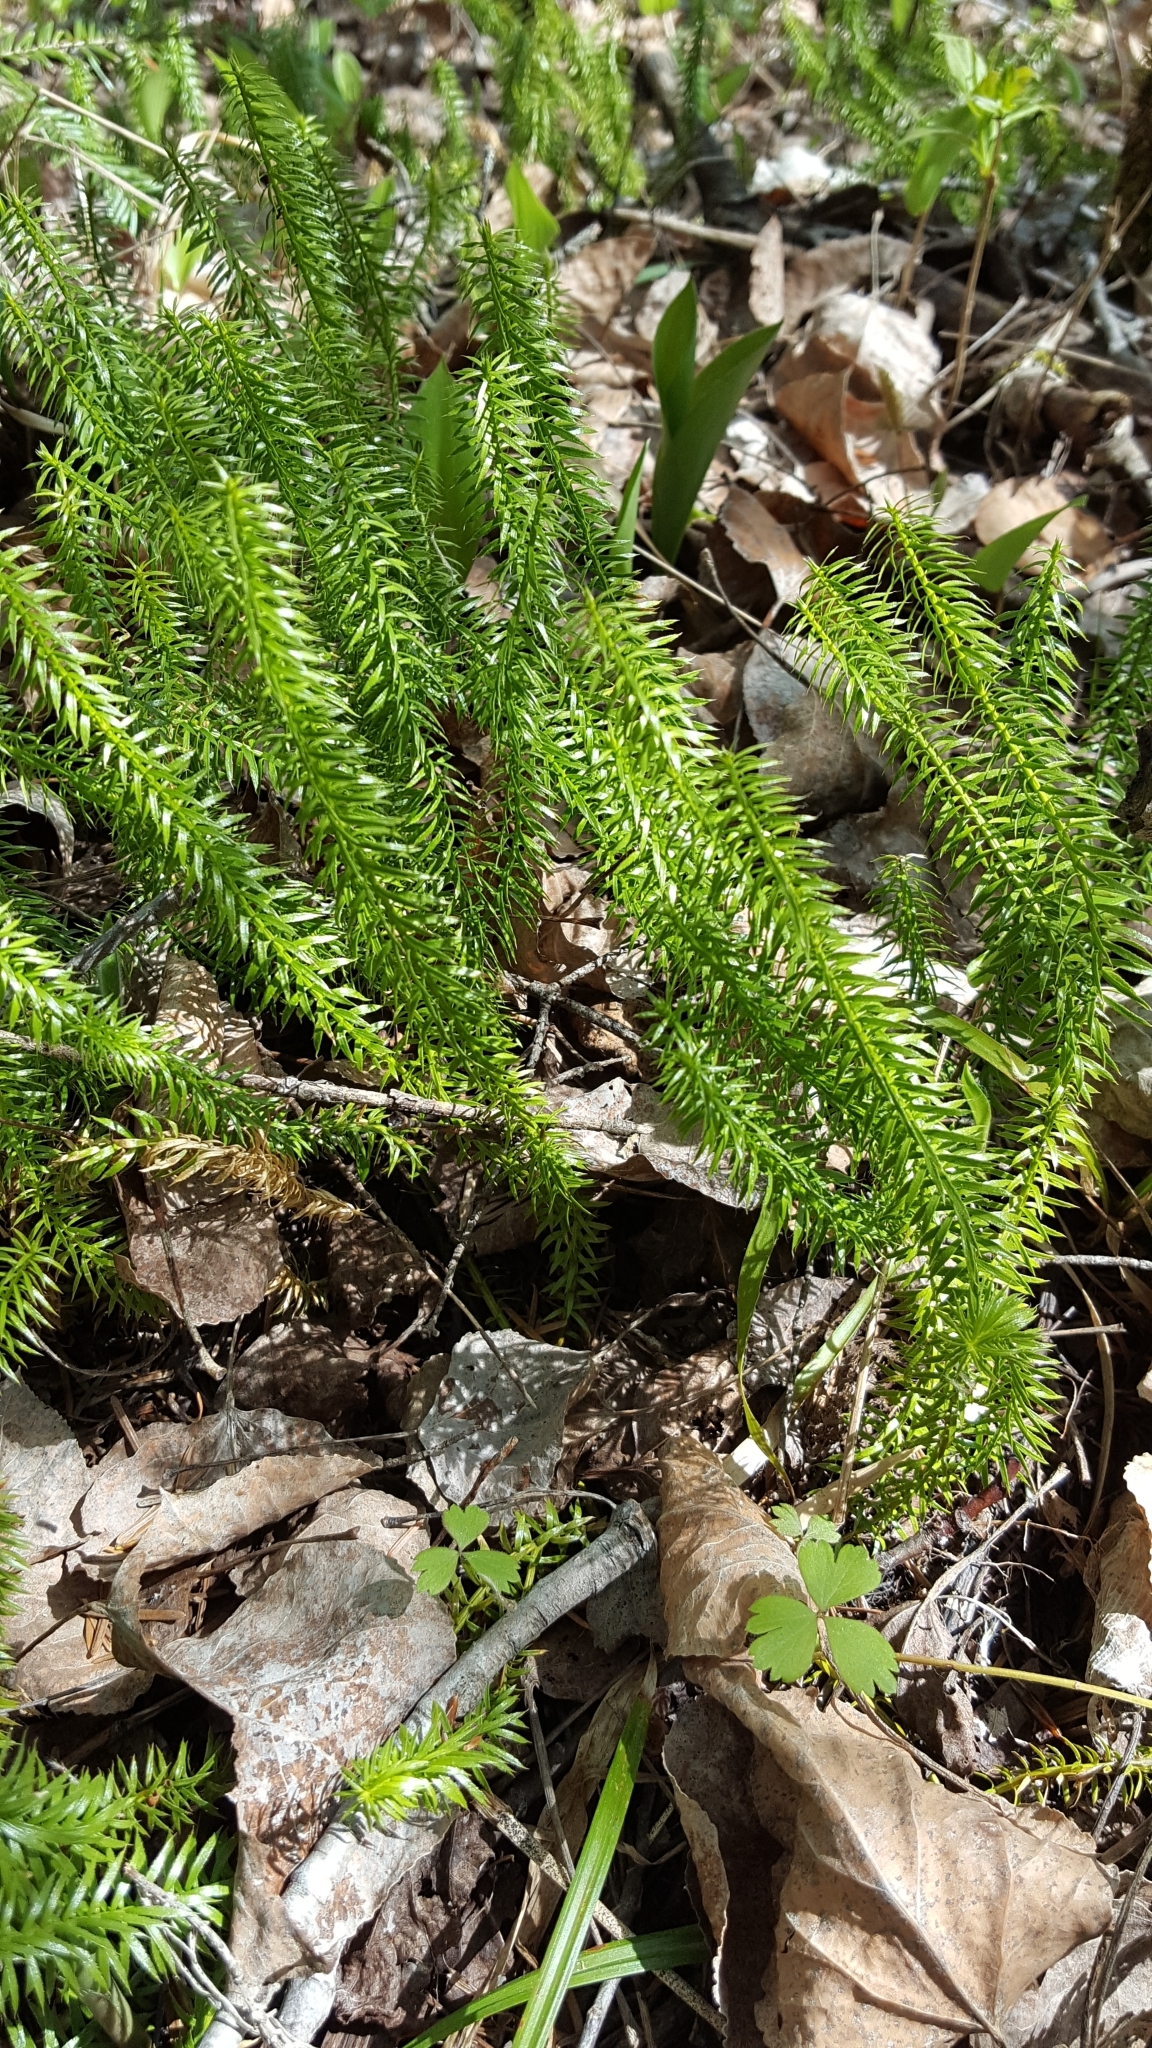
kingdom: Plantae
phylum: Tracheophyta
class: Lycopodiopsida
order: Lycopodiales
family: Lycopodiaceae
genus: Spinulum
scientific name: Spinulum annotinum
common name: Interrupted club-moss
